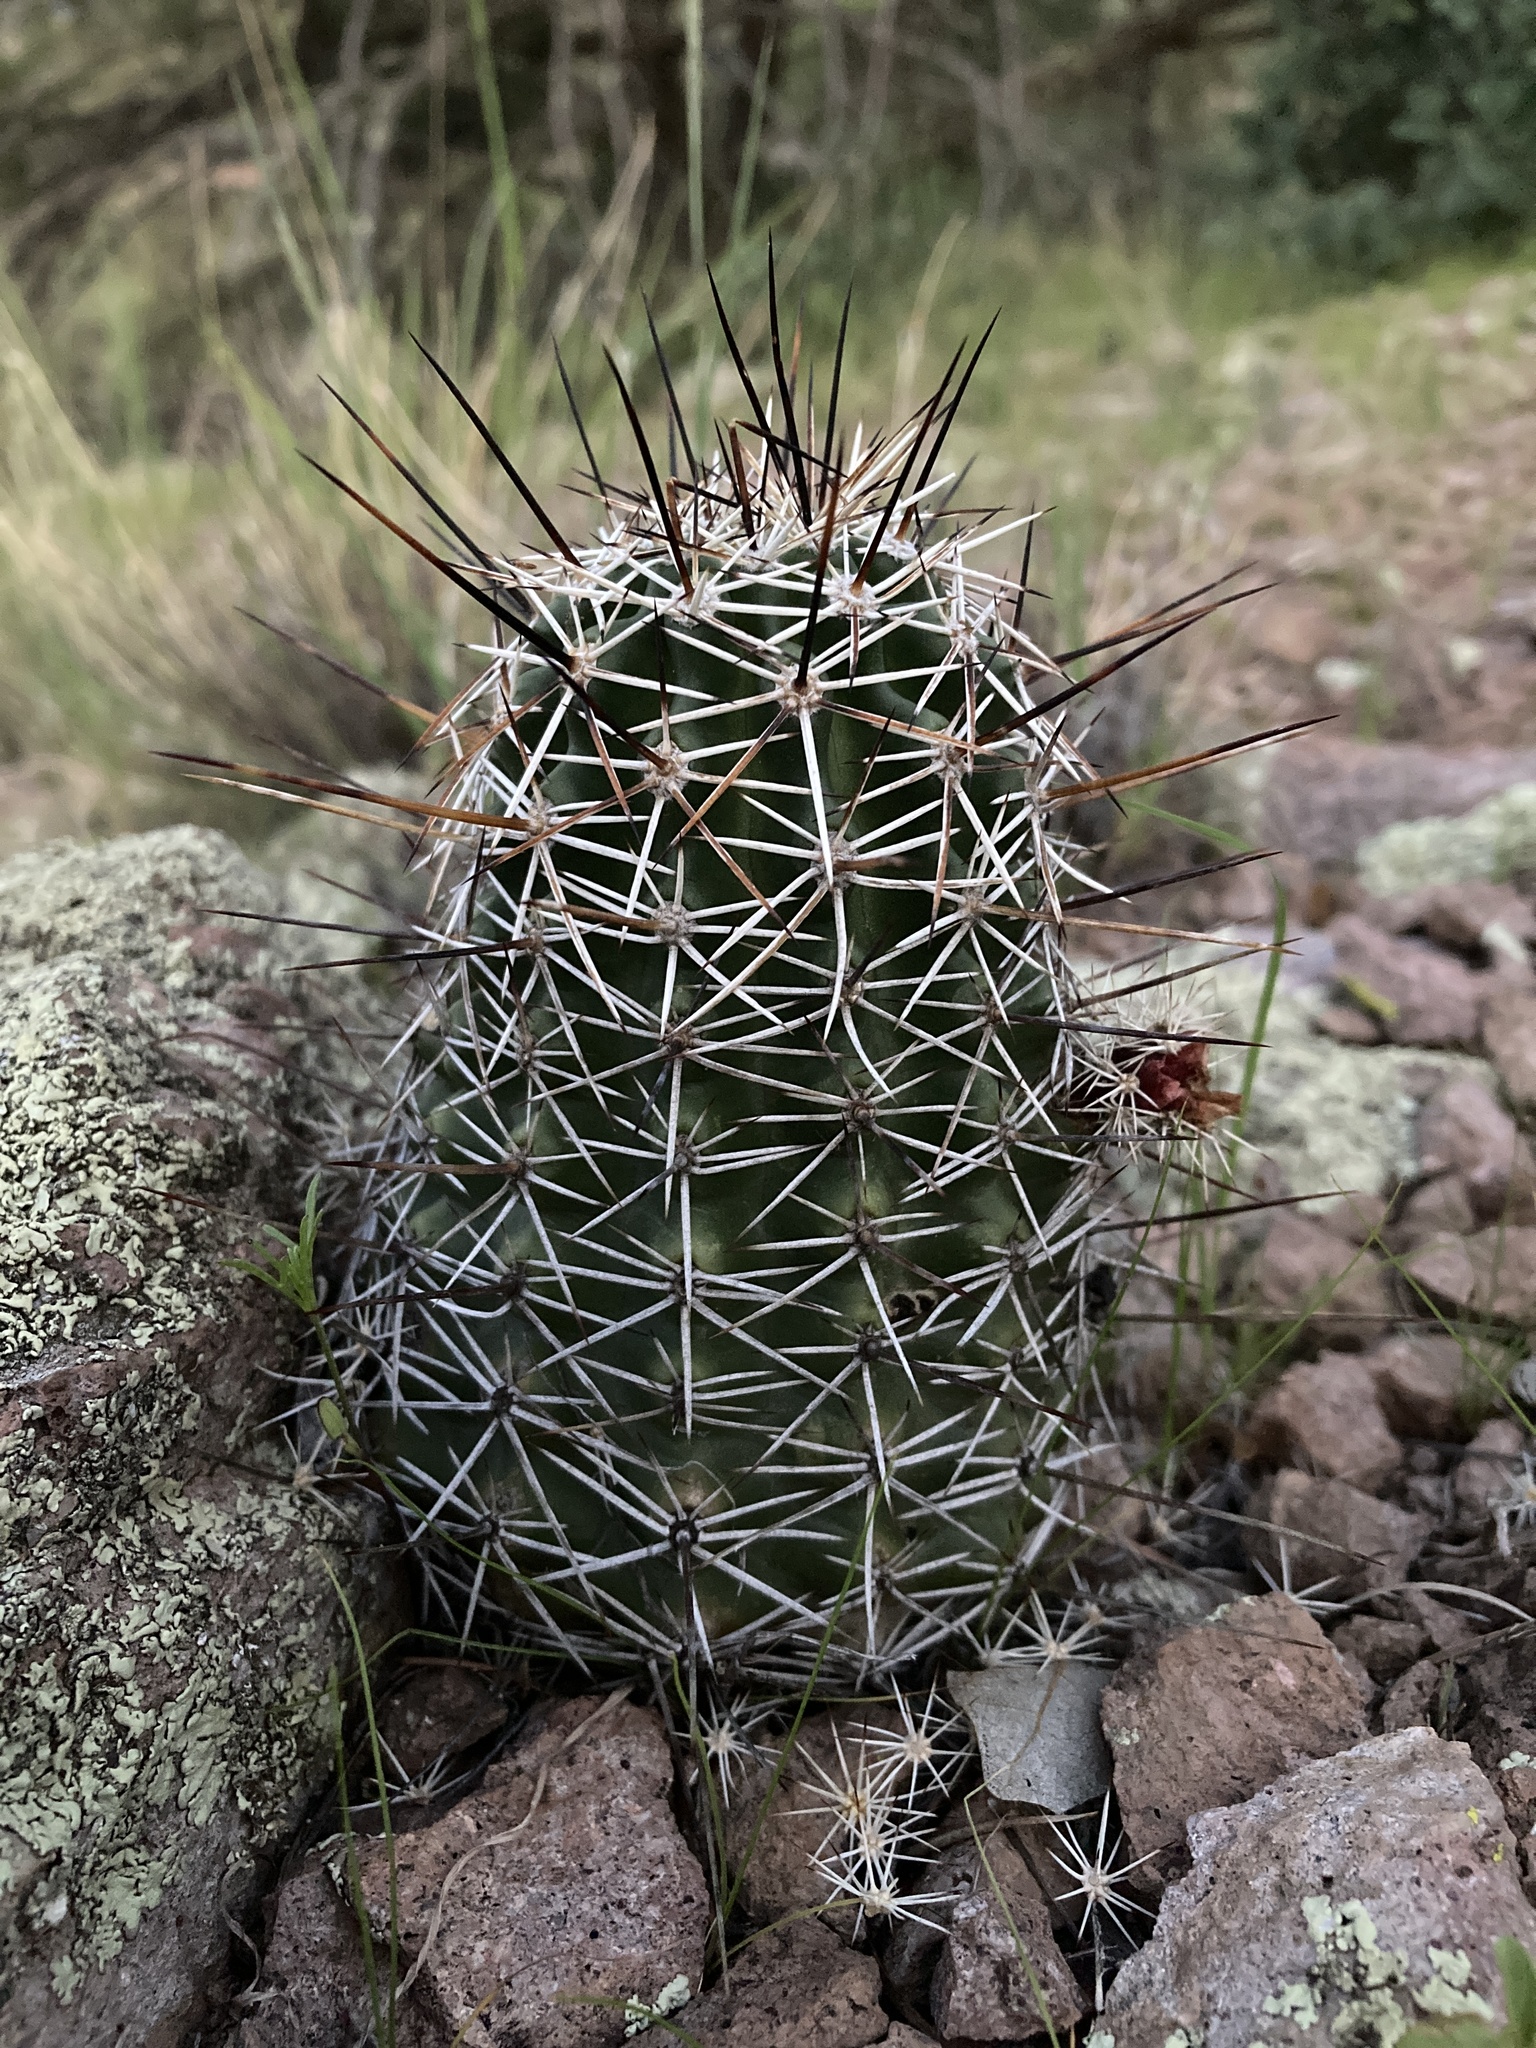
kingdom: Plantae
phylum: Tracheophyta
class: Magnoliopsida
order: Caryophyllales
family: Cactaceae
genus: Echinocereus
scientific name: Echinocereus fendleri
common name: Fendler's hedgehog cactus
